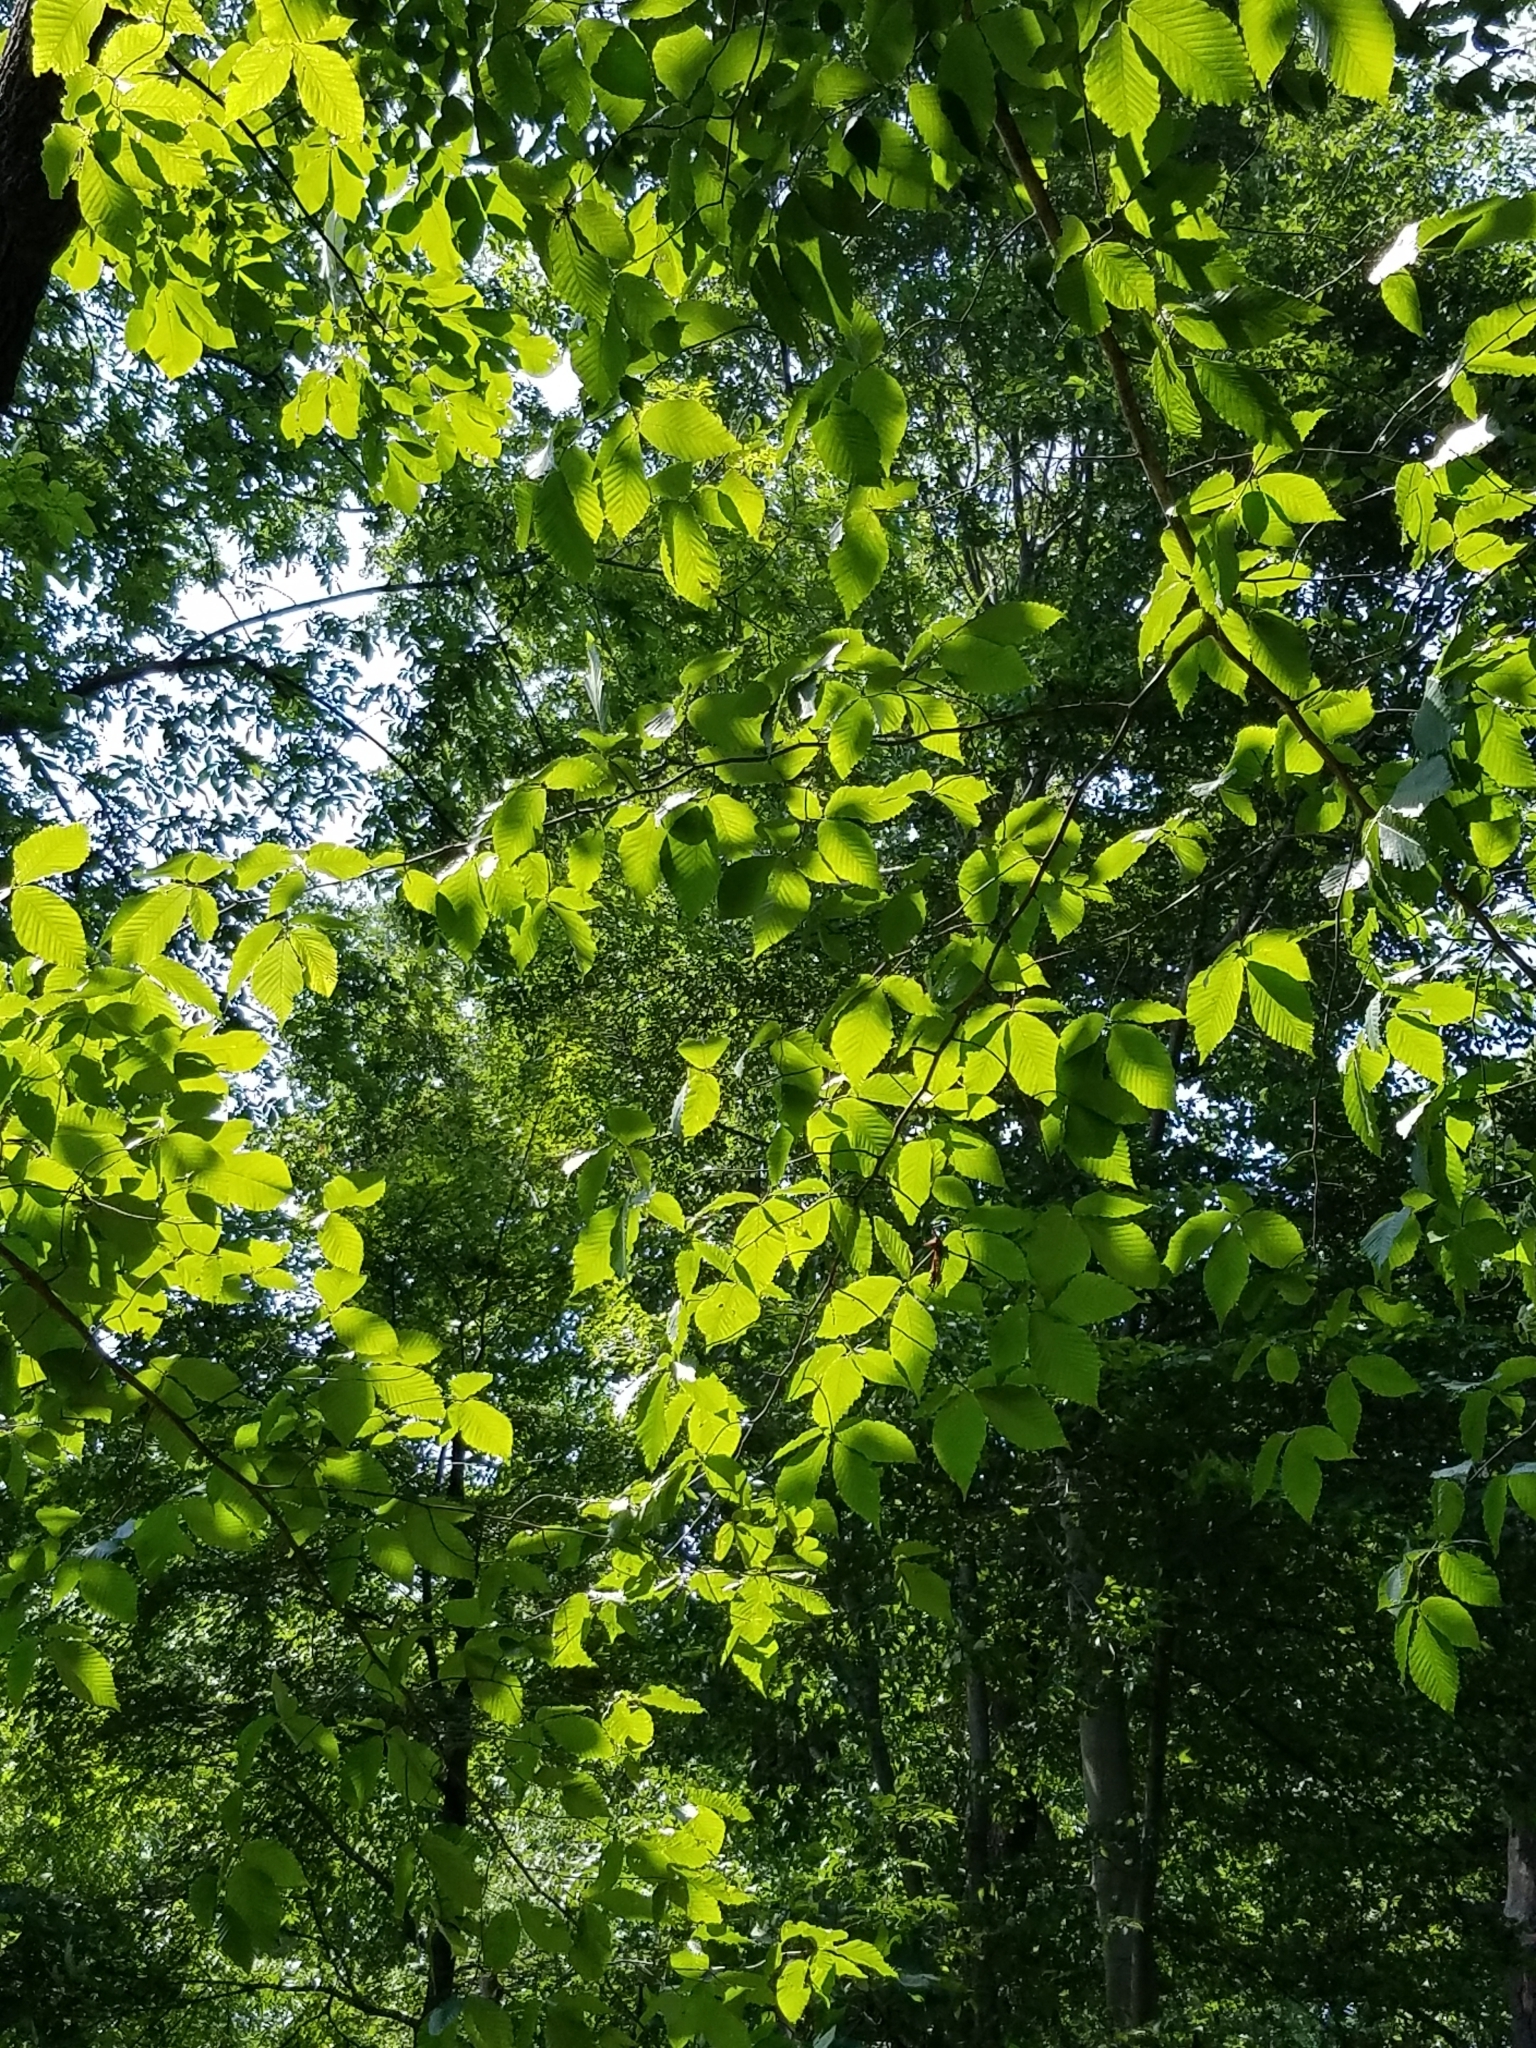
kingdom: Plantae
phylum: Tracheophyta
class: Magnoliopsida
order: Fagales
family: Fagaceae
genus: Fagus
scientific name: Fagus grandifolia
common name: American beech
